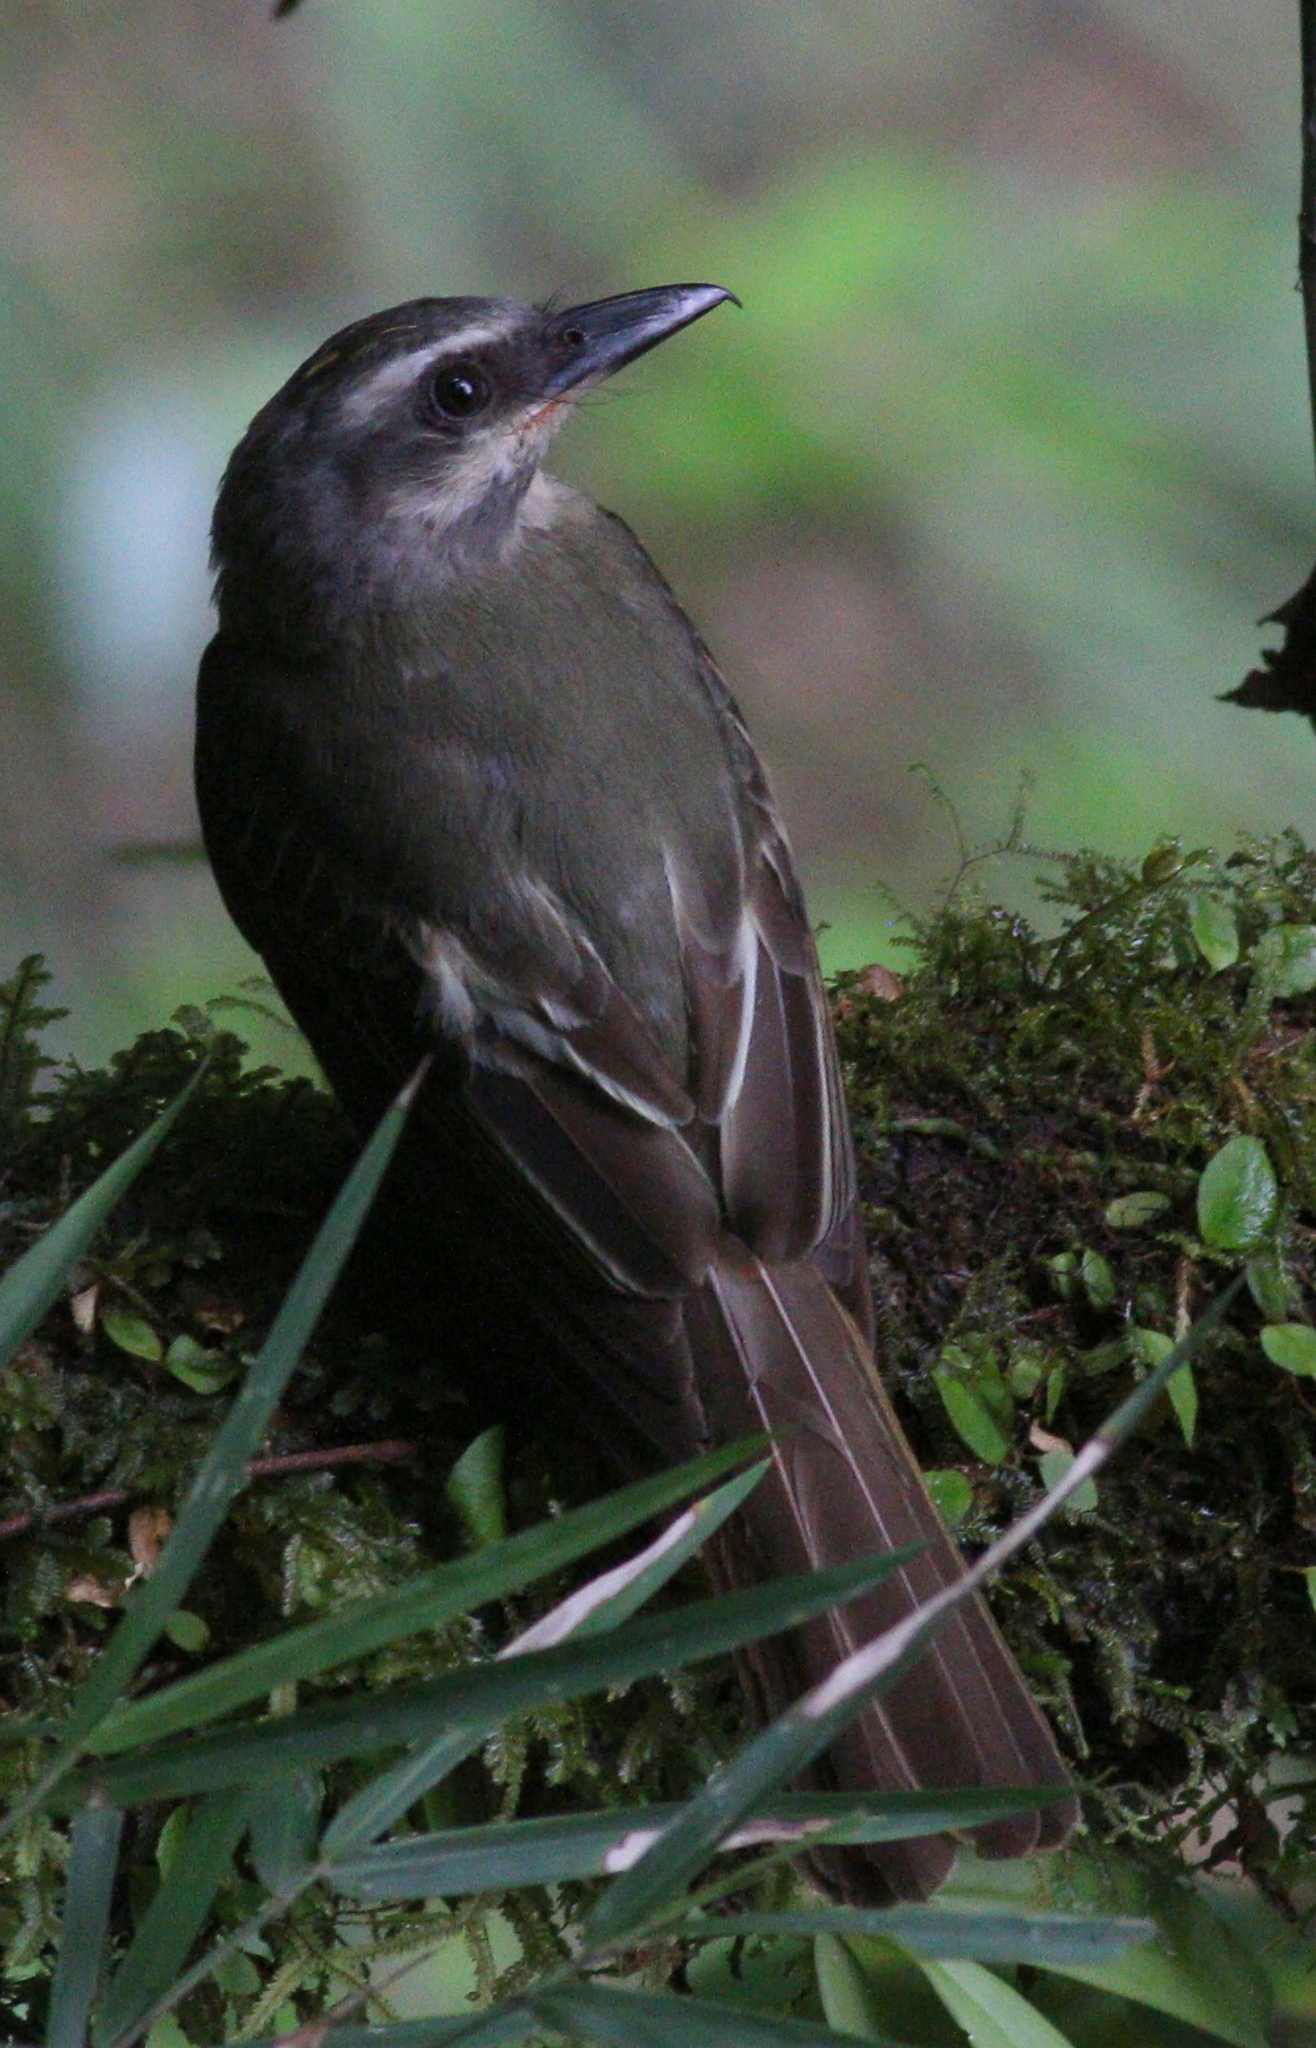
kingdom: Animalia
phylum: Chordata
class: Aves
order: Passeriformes
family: Tyrannidae
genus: Myiodynastes
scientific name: Myiodynastes chrysocephalus
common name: Golden-crowned flycatcher
